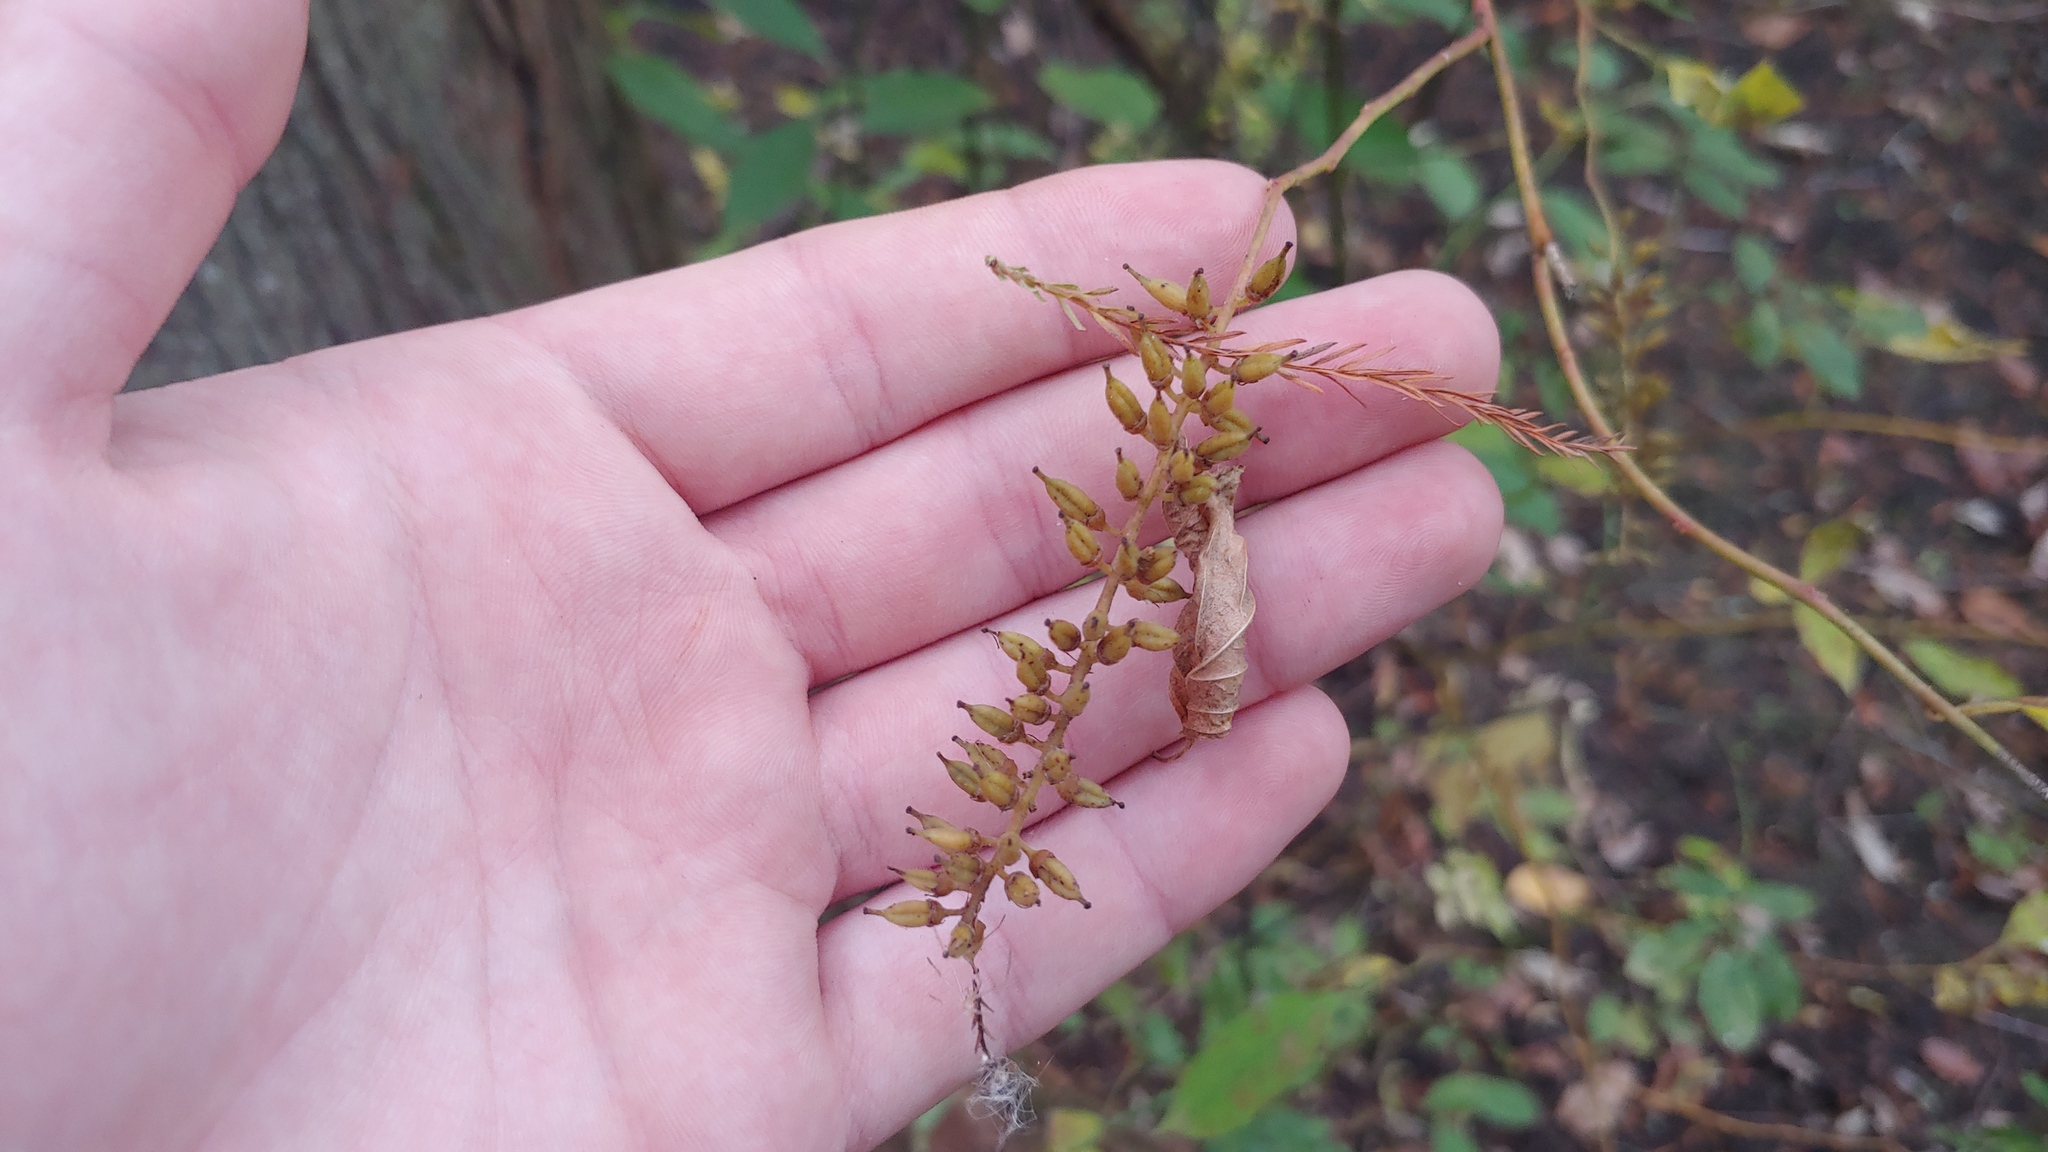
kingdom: Plantae
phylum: Tracheophyta
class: Magnoliopsida
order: Saxifragales
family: Iteaceae
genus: Itea
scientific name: Itea virginica
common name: Sweetspire
